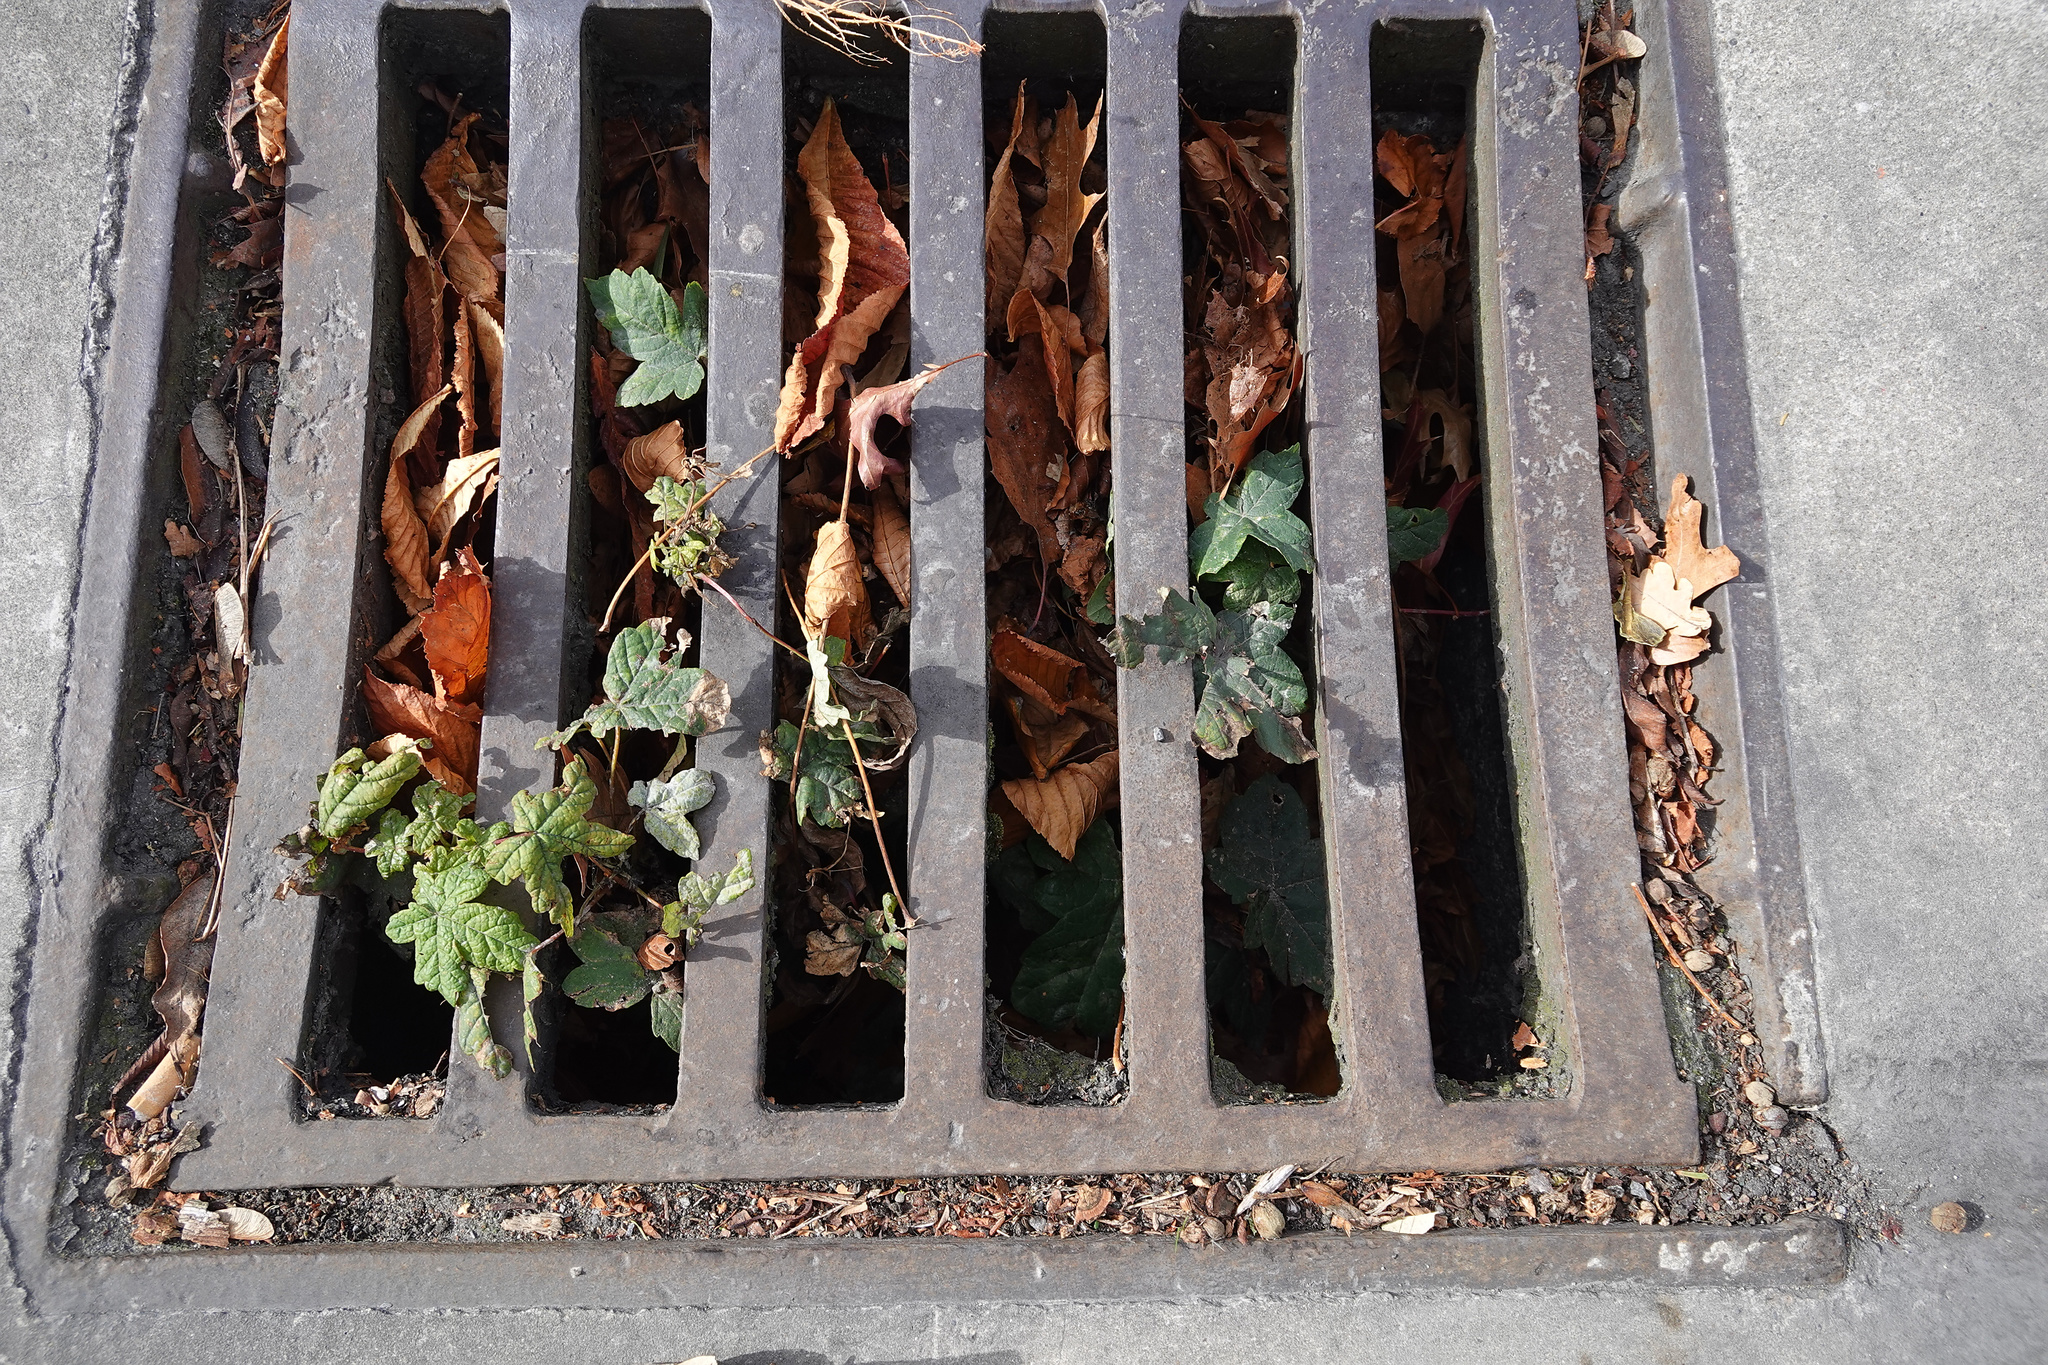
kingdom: Plantae
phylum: Tracheophyta
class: Magnoliopsida
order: Sapindales
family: Sapindaceae
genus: Acer
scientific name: Acer pseudoplatanus
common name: Sycamore
